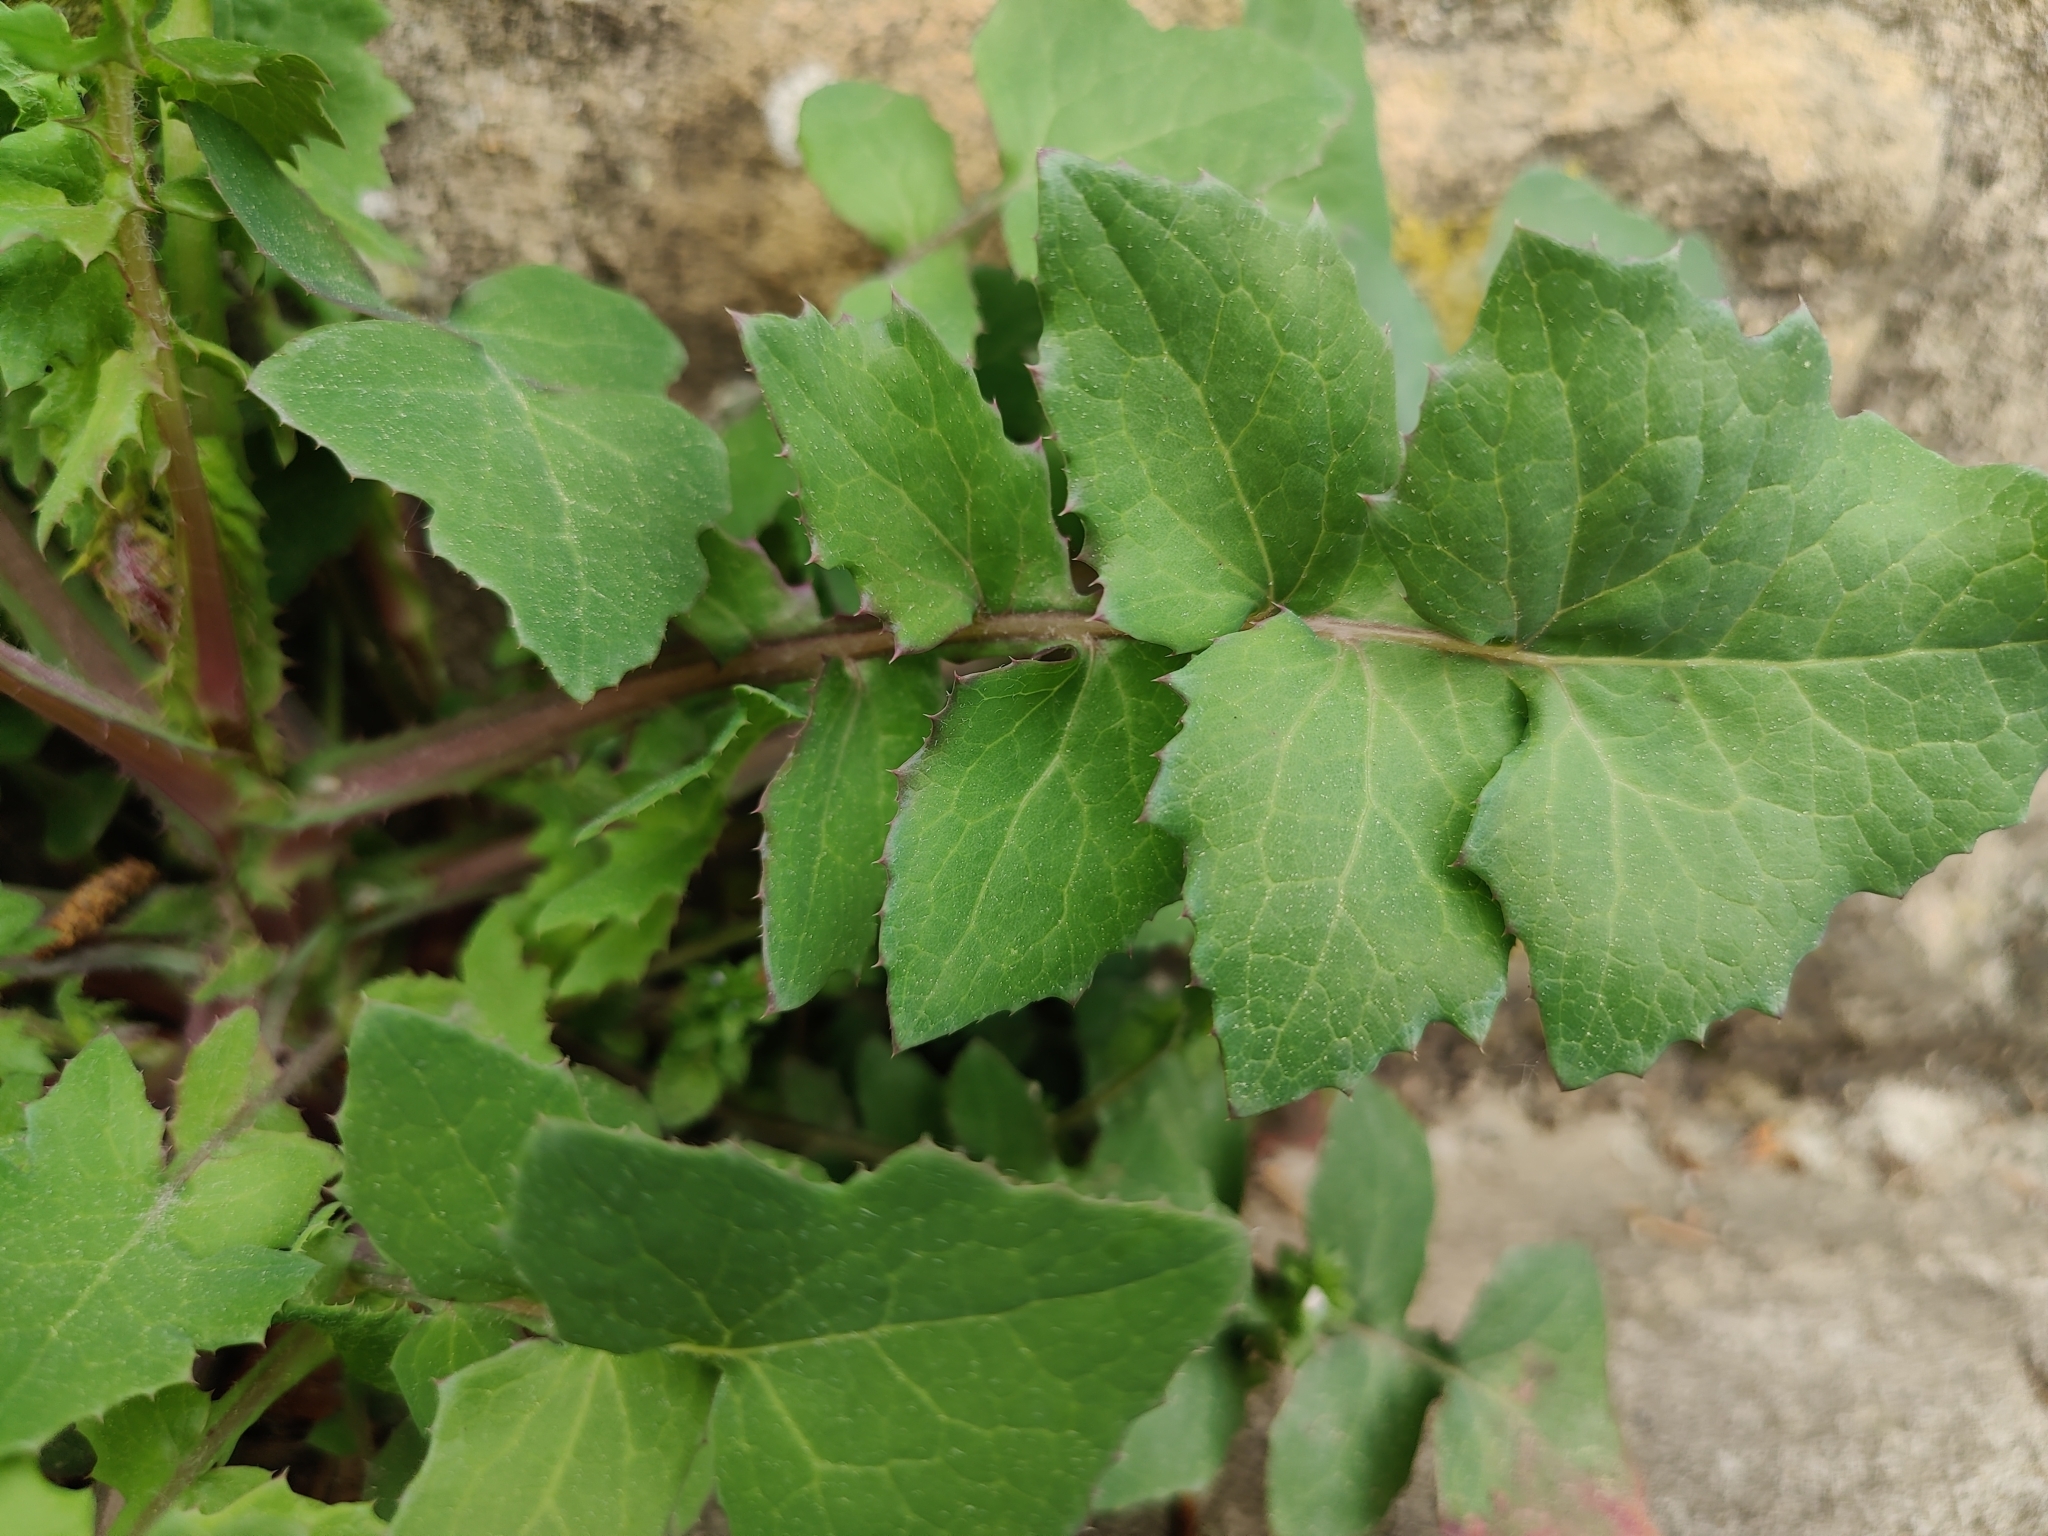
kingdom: Plantae
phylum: Tracheophyta
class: Magnoliopsida
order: Asterales
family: Asteraceae
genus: Sonchus
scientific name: Sonchus oleraceus
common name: Common sowthistle
